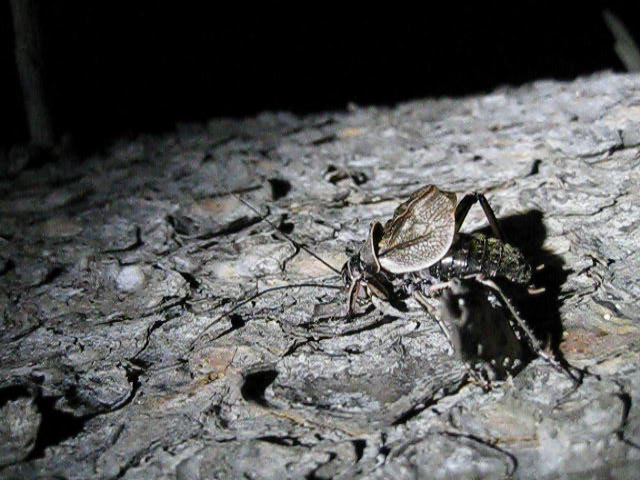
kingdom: Animalia
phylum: Arthropoda
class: Insecta
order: Orthoptera
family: Prophalangopsidae
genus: Cyphoderris
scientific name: Cyphoderris monstrosa
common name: Great grig
